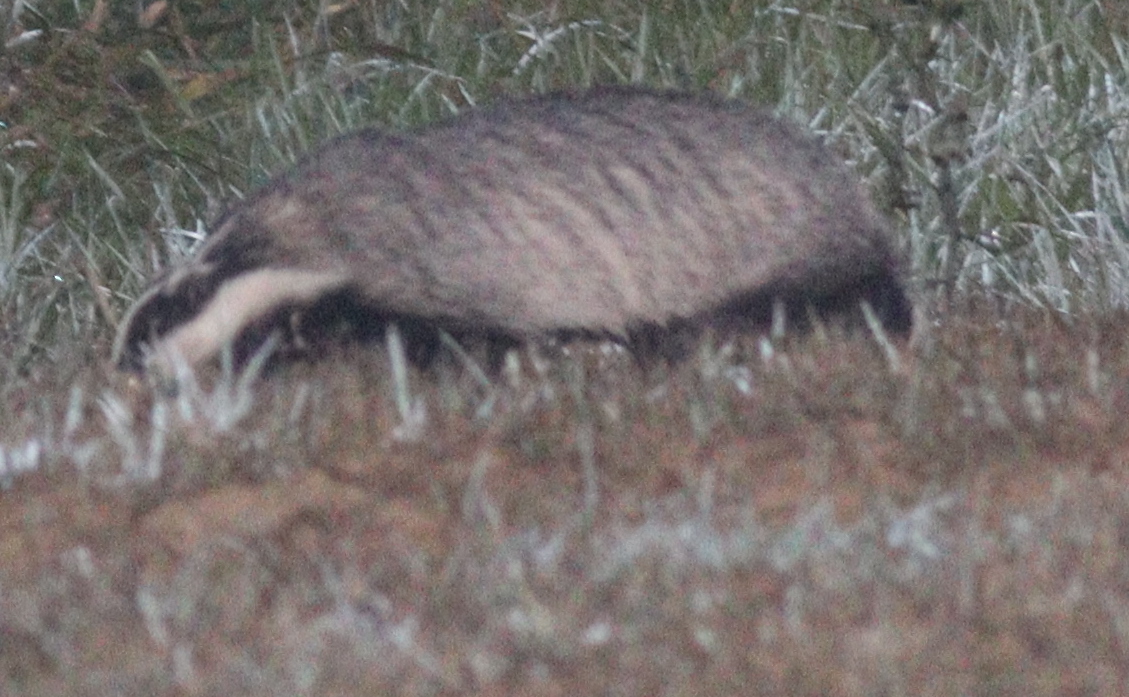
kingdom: Animalia
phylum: Chordata
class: Mammalia
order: Carnivora
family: Mustelidae
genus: Meles
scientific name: Meles meles
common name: Eurasian badger
